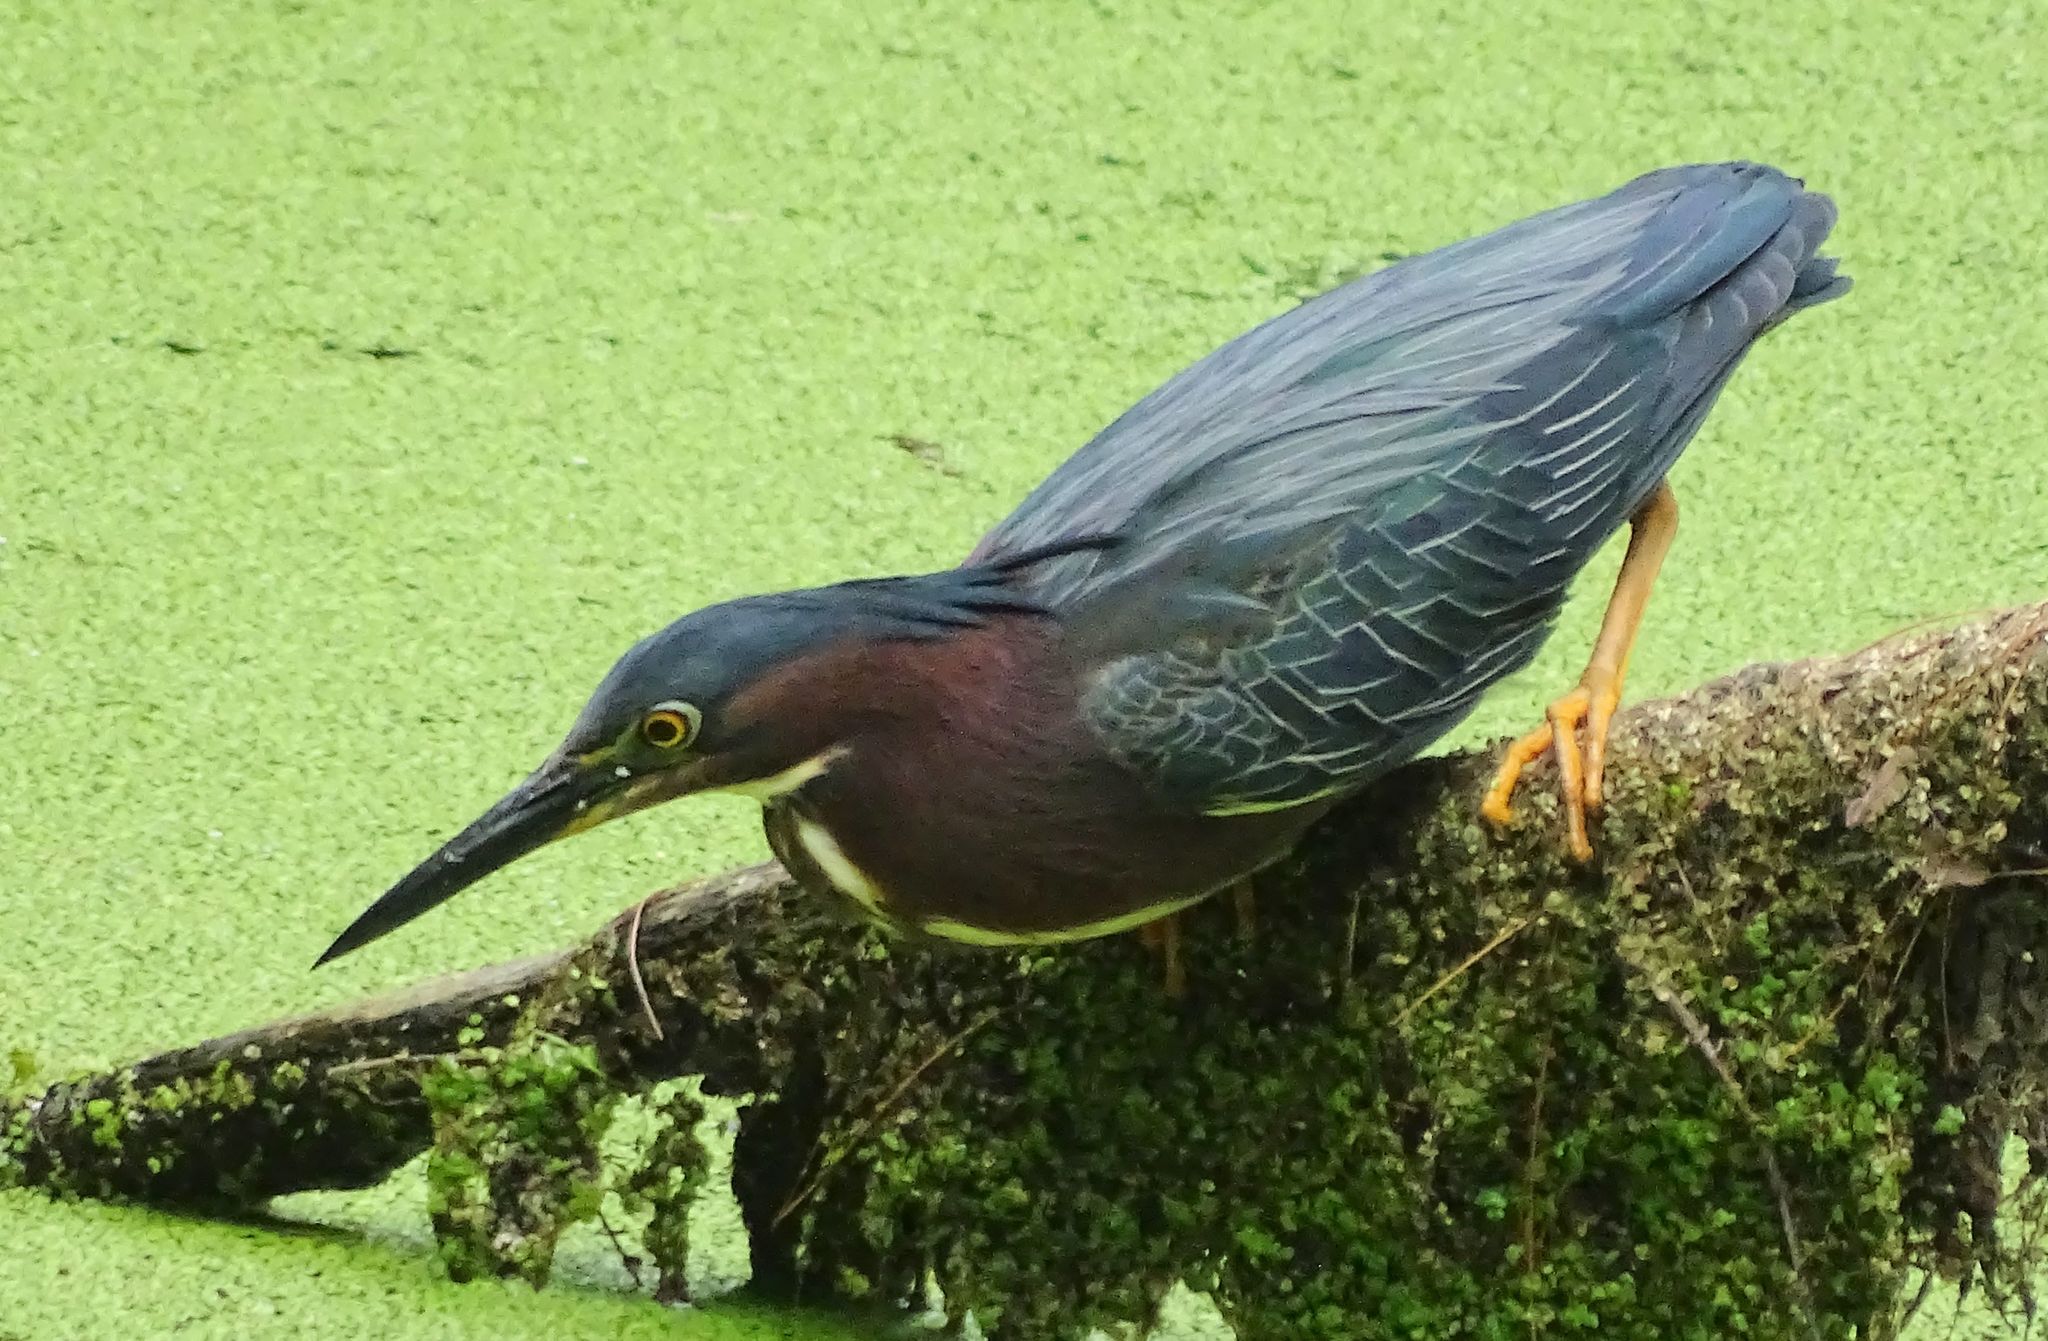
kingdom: Animalia
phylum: Chordata
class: Aves
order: Pelecaniformes
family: Ardeidae
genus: Butorides
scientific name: Butorides virescens
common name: Green heron
